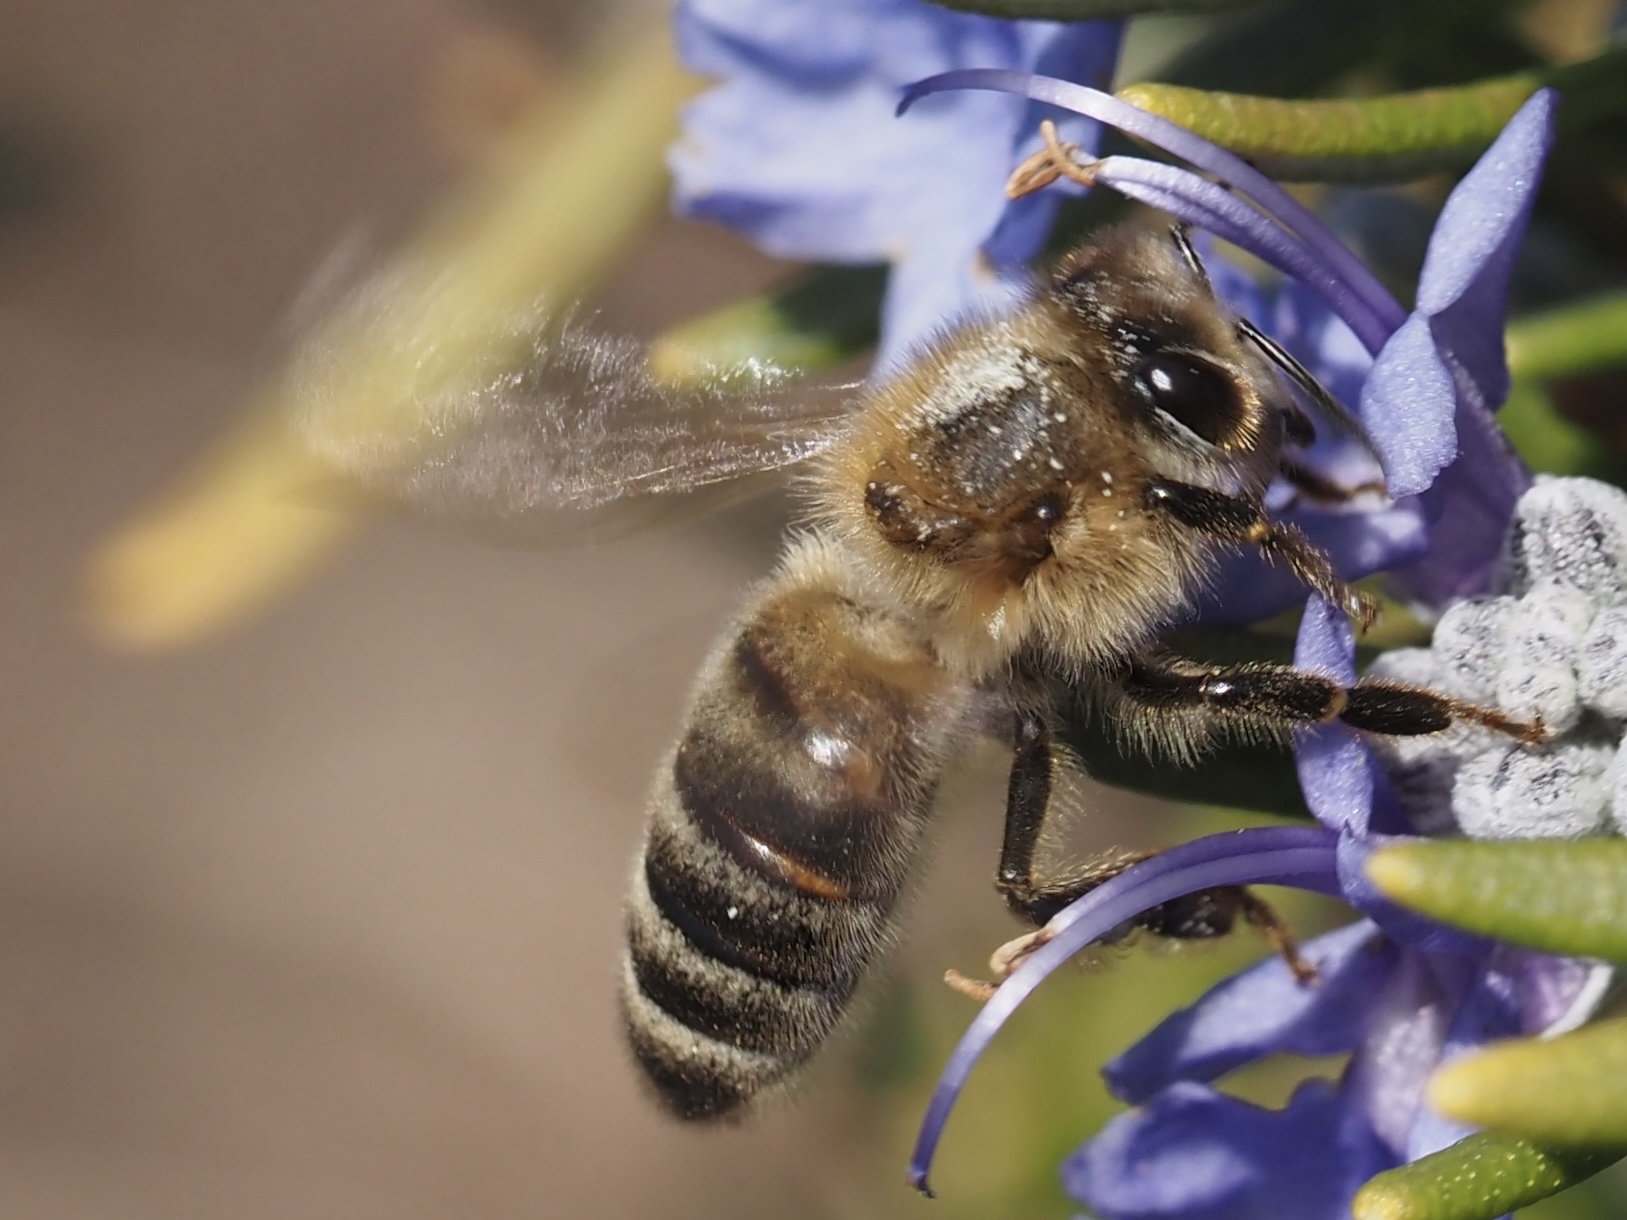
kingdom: Animalia
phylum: Arthropoda
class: Insecta
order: Hymenoptera
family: Apidae
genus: Apis
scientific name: Apis mellifera
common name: Honey bee
